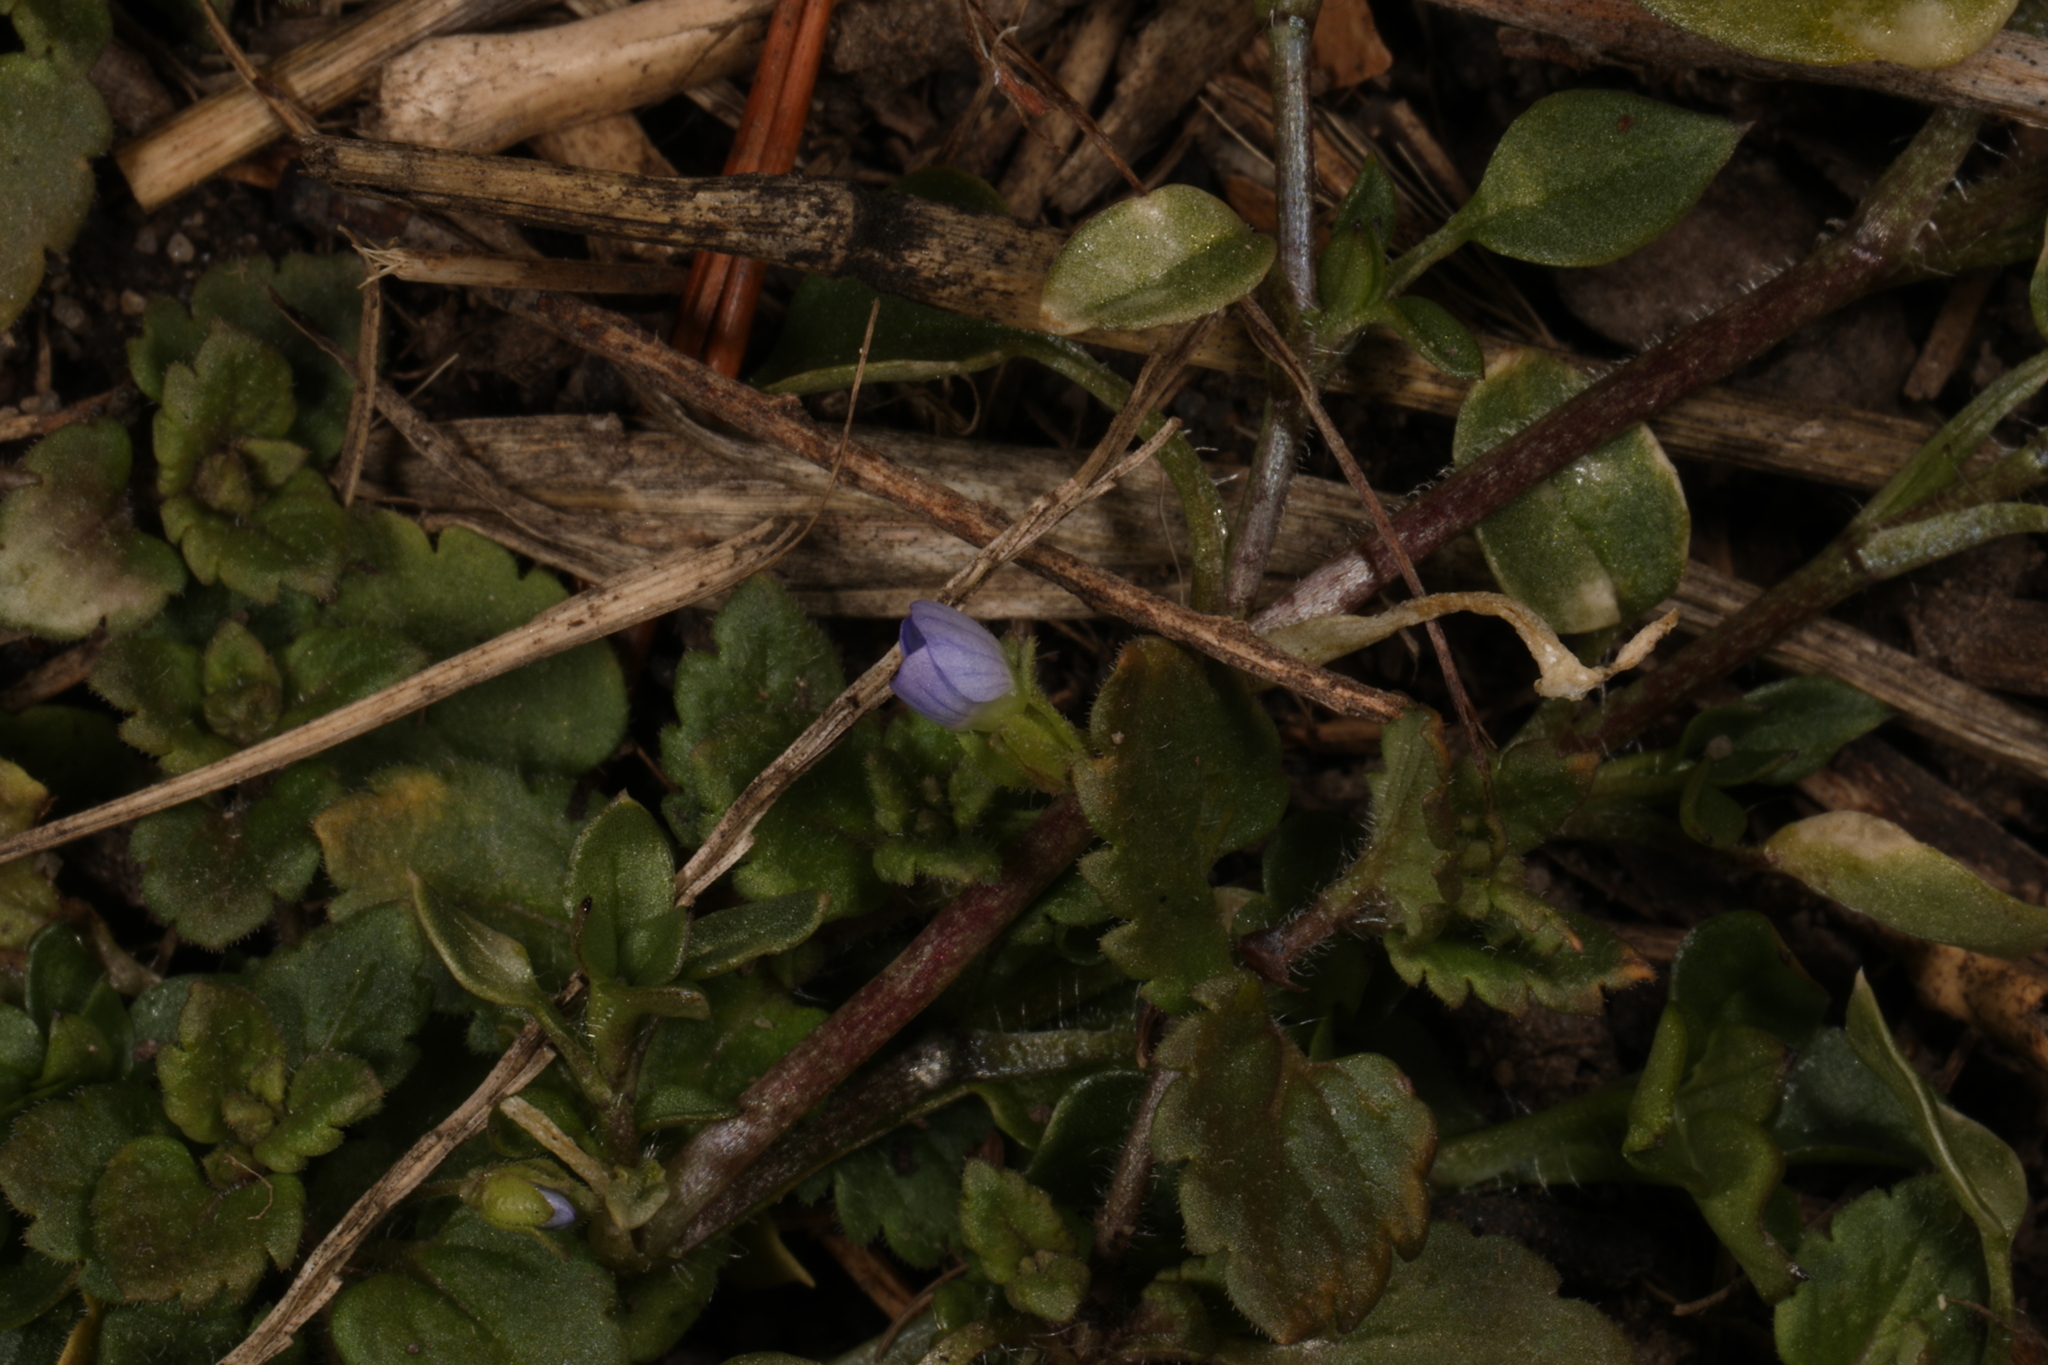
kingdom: Plantae
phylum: Tracheophyta
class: Magnoliopsida
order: Lamiales
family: Plantaginaceae
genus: Veronica
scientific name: Veronica persica
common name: Common field-speedwell
